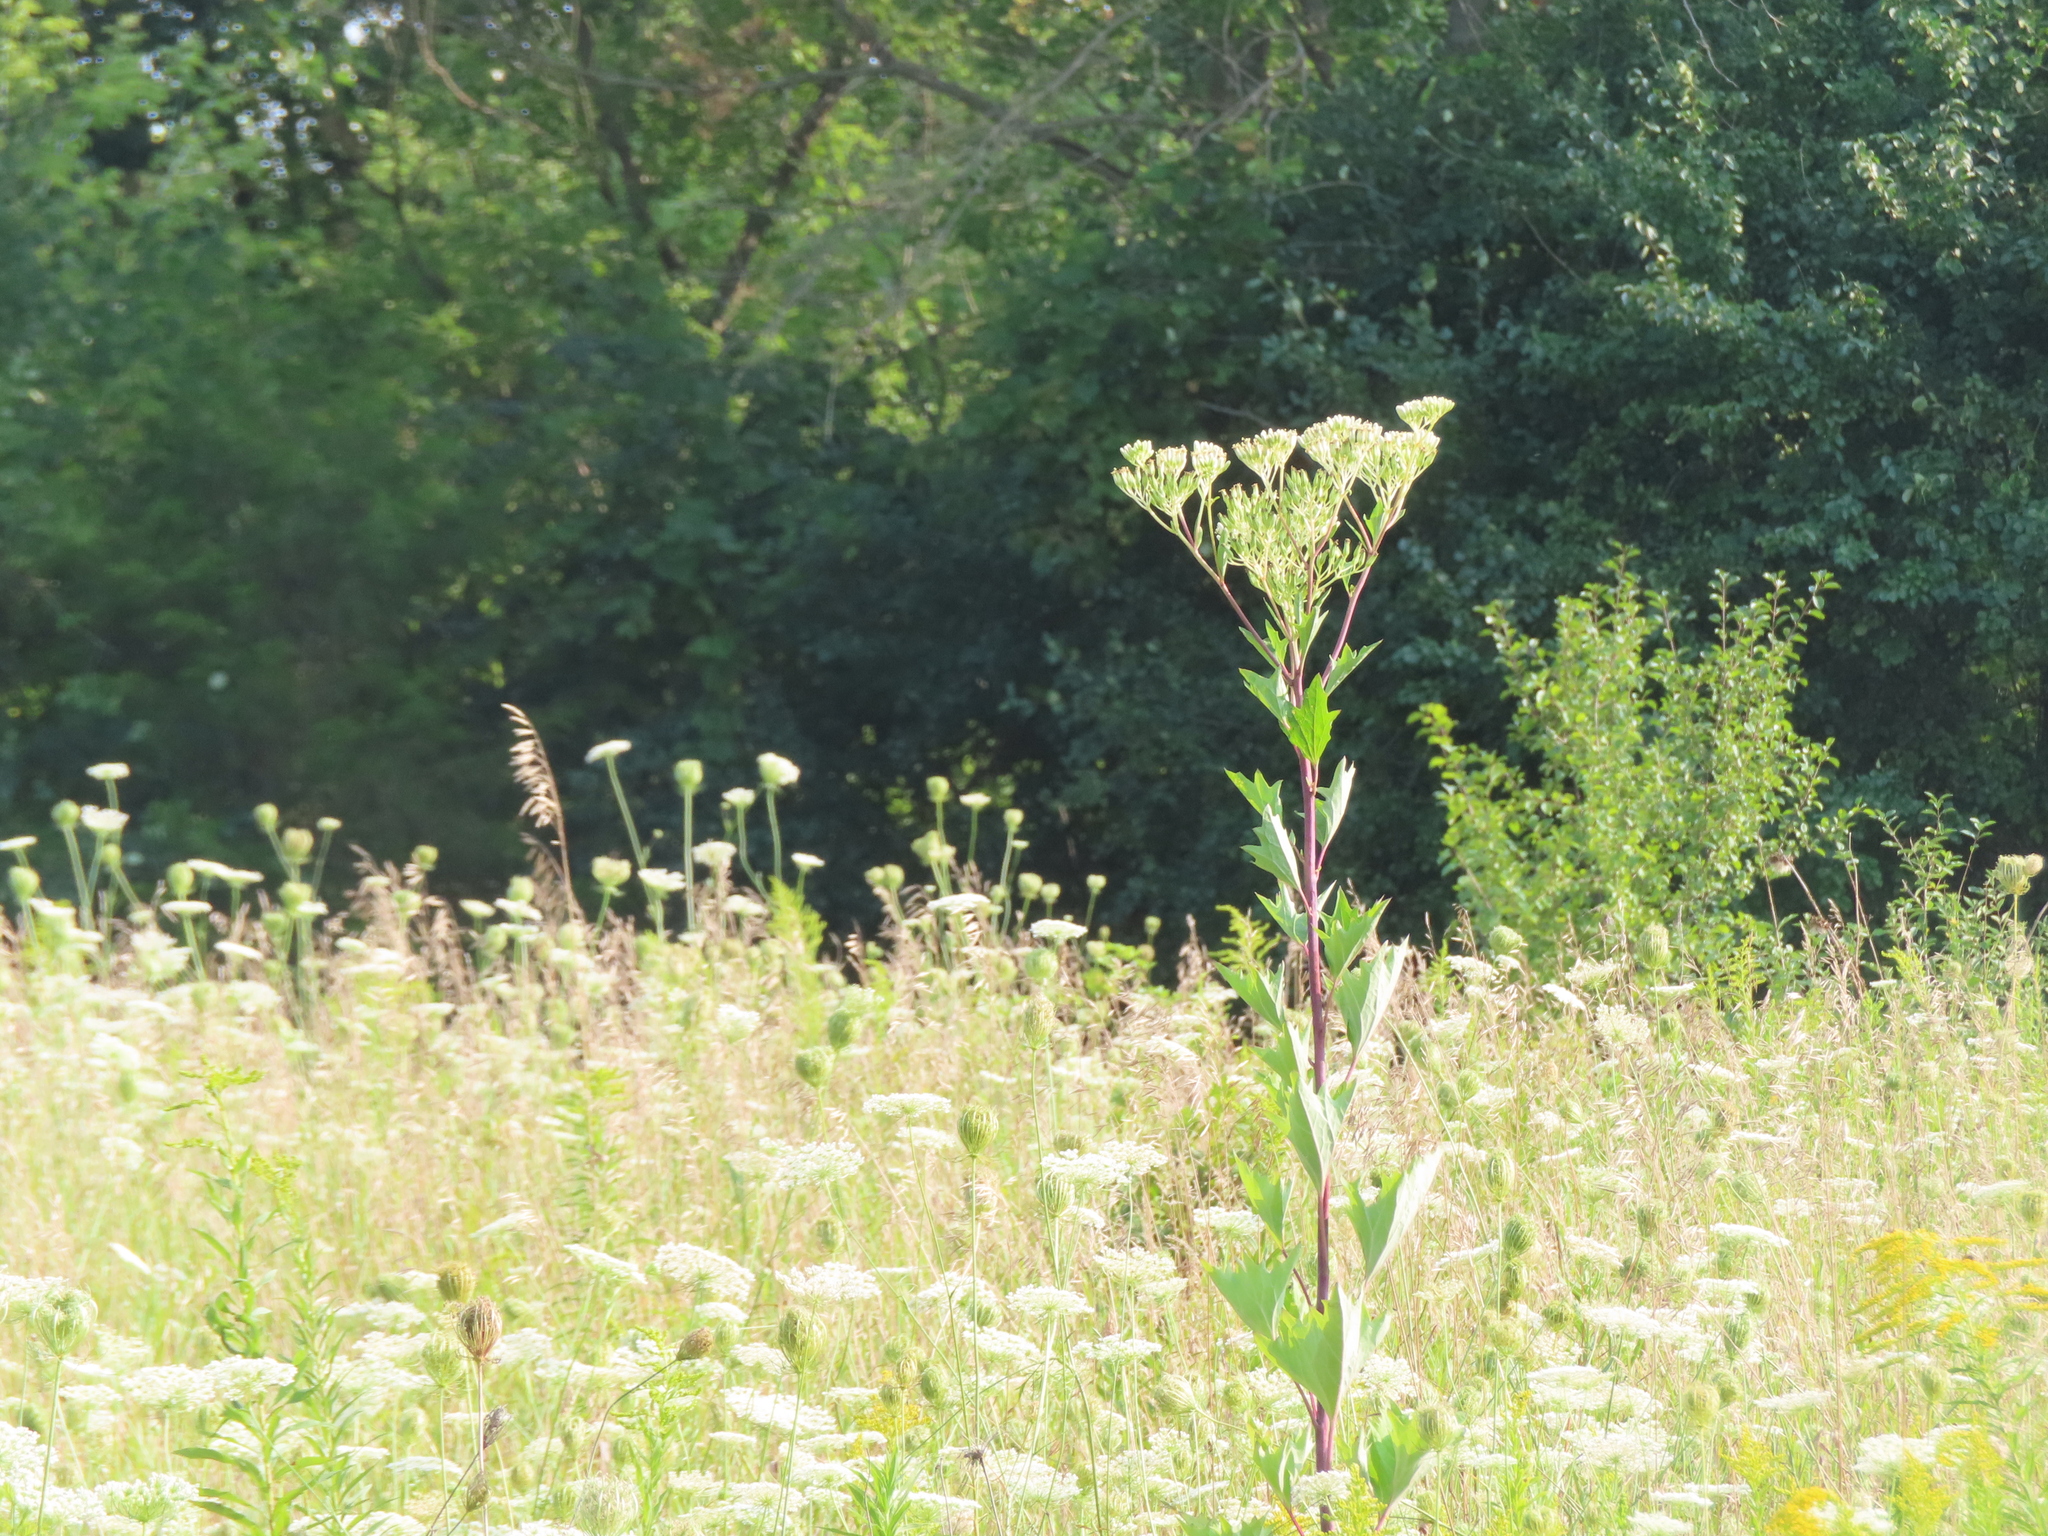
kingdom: Plantae
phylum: Tracheophyta
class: Magnoliopsida
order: Asterales
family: Asteraceae
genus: Arnoglossum
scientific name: Arnoglossum atriplicifolium
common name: Pale indian-plantain
